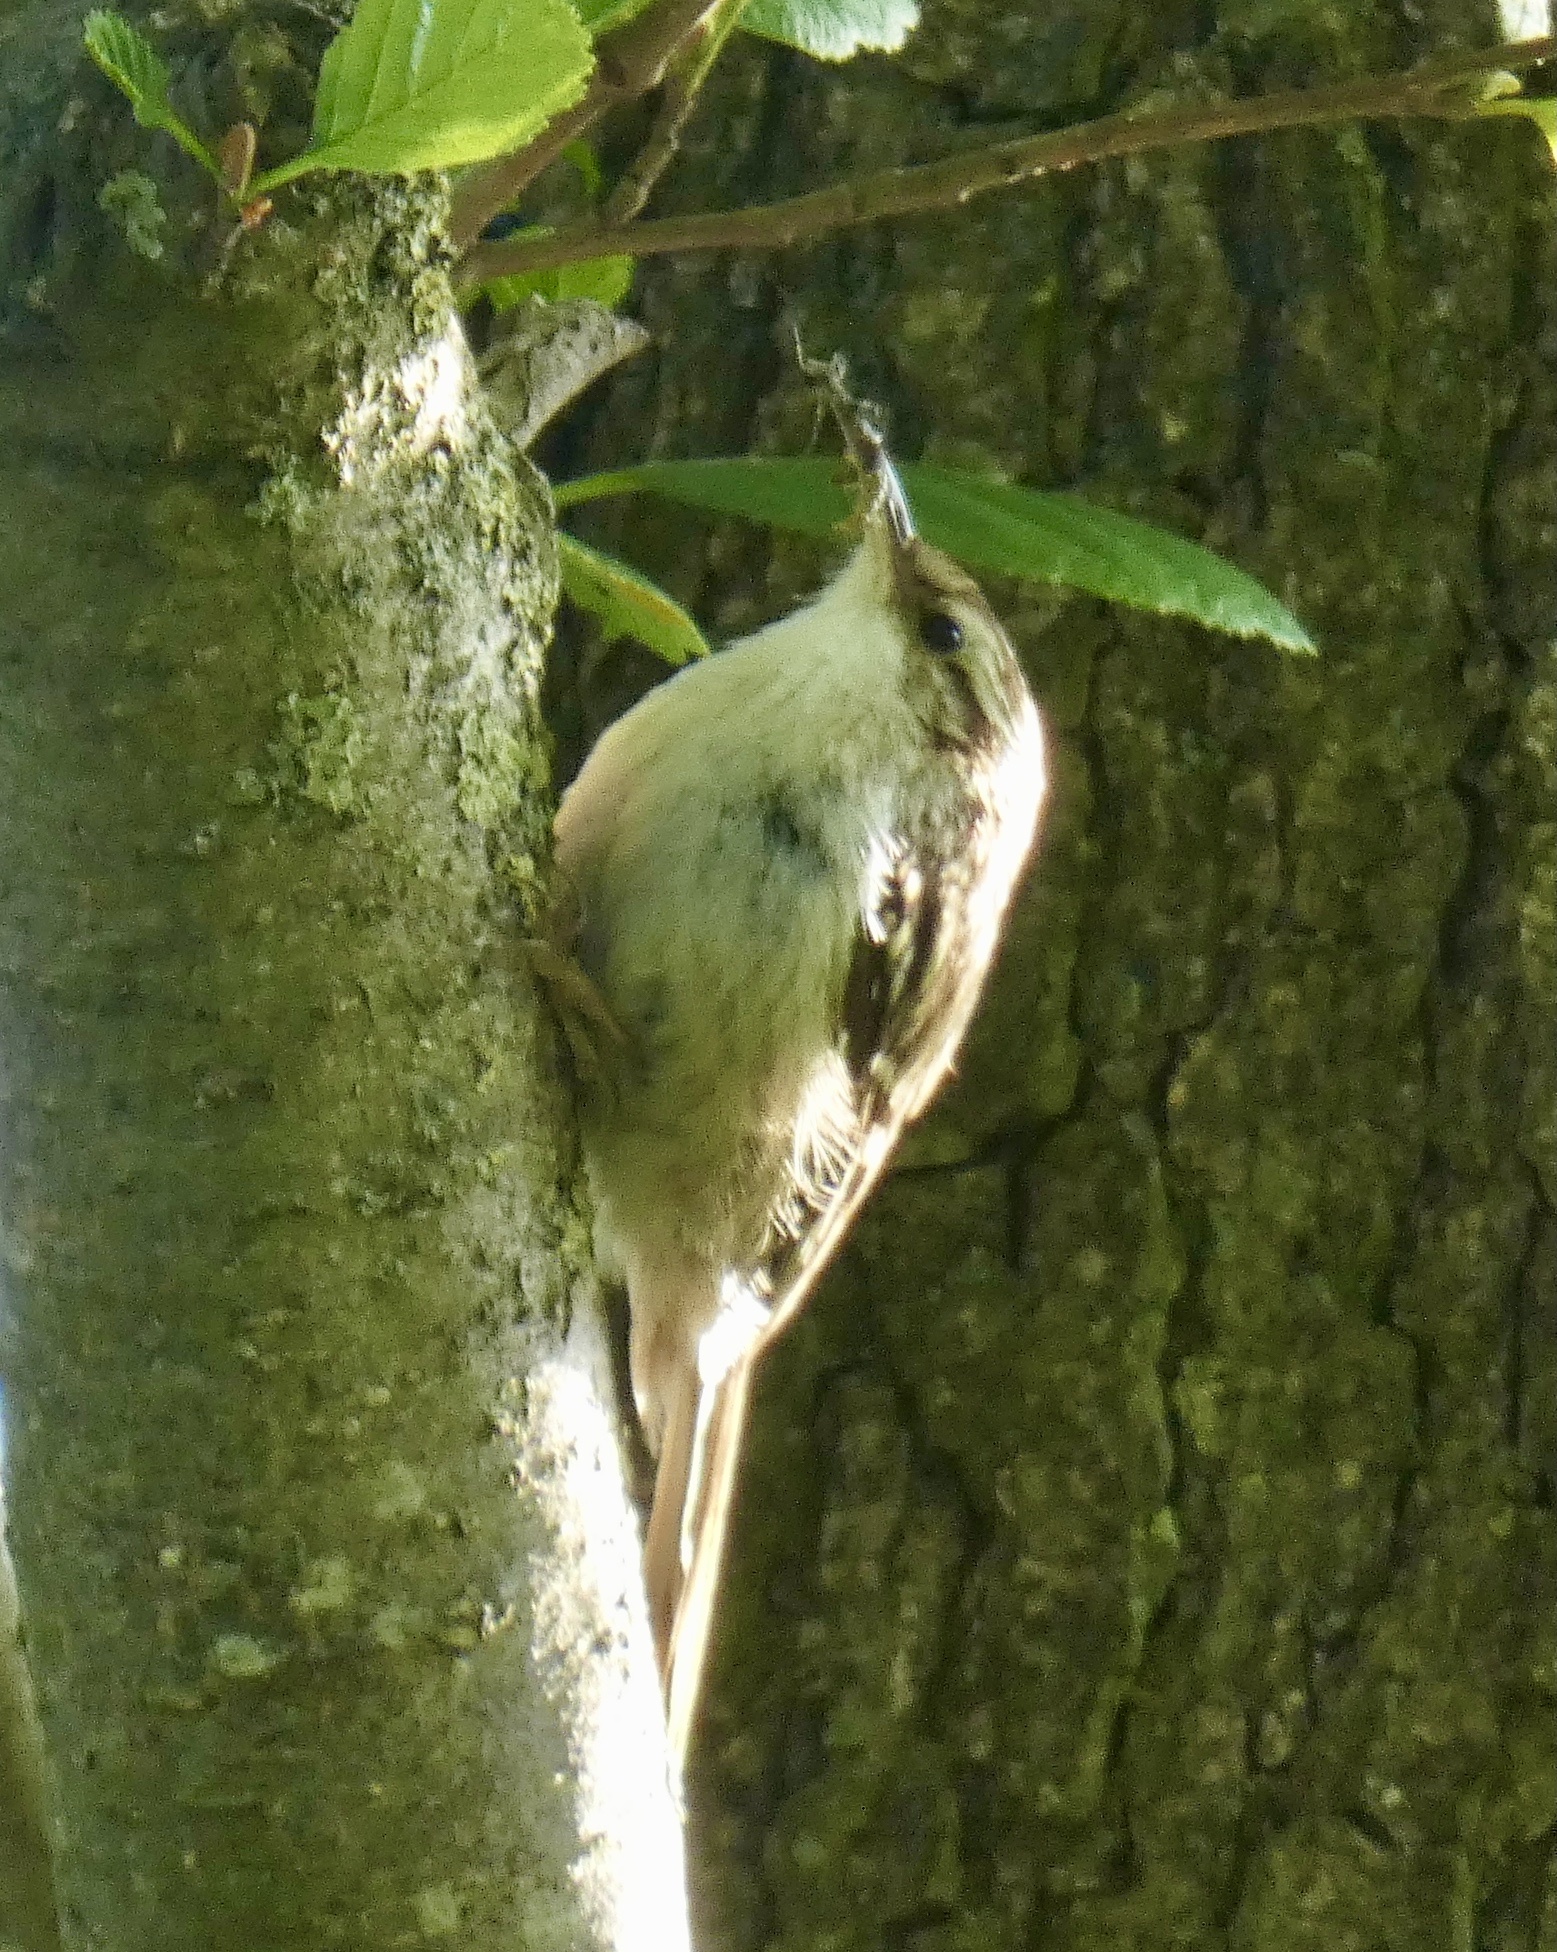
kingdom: Animalia
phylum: Chordata
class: Aves
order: Passeriformes
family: Certhiidae
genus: Certhia
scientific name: Certhia brachydactyla
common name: Short-toed treecreeper
